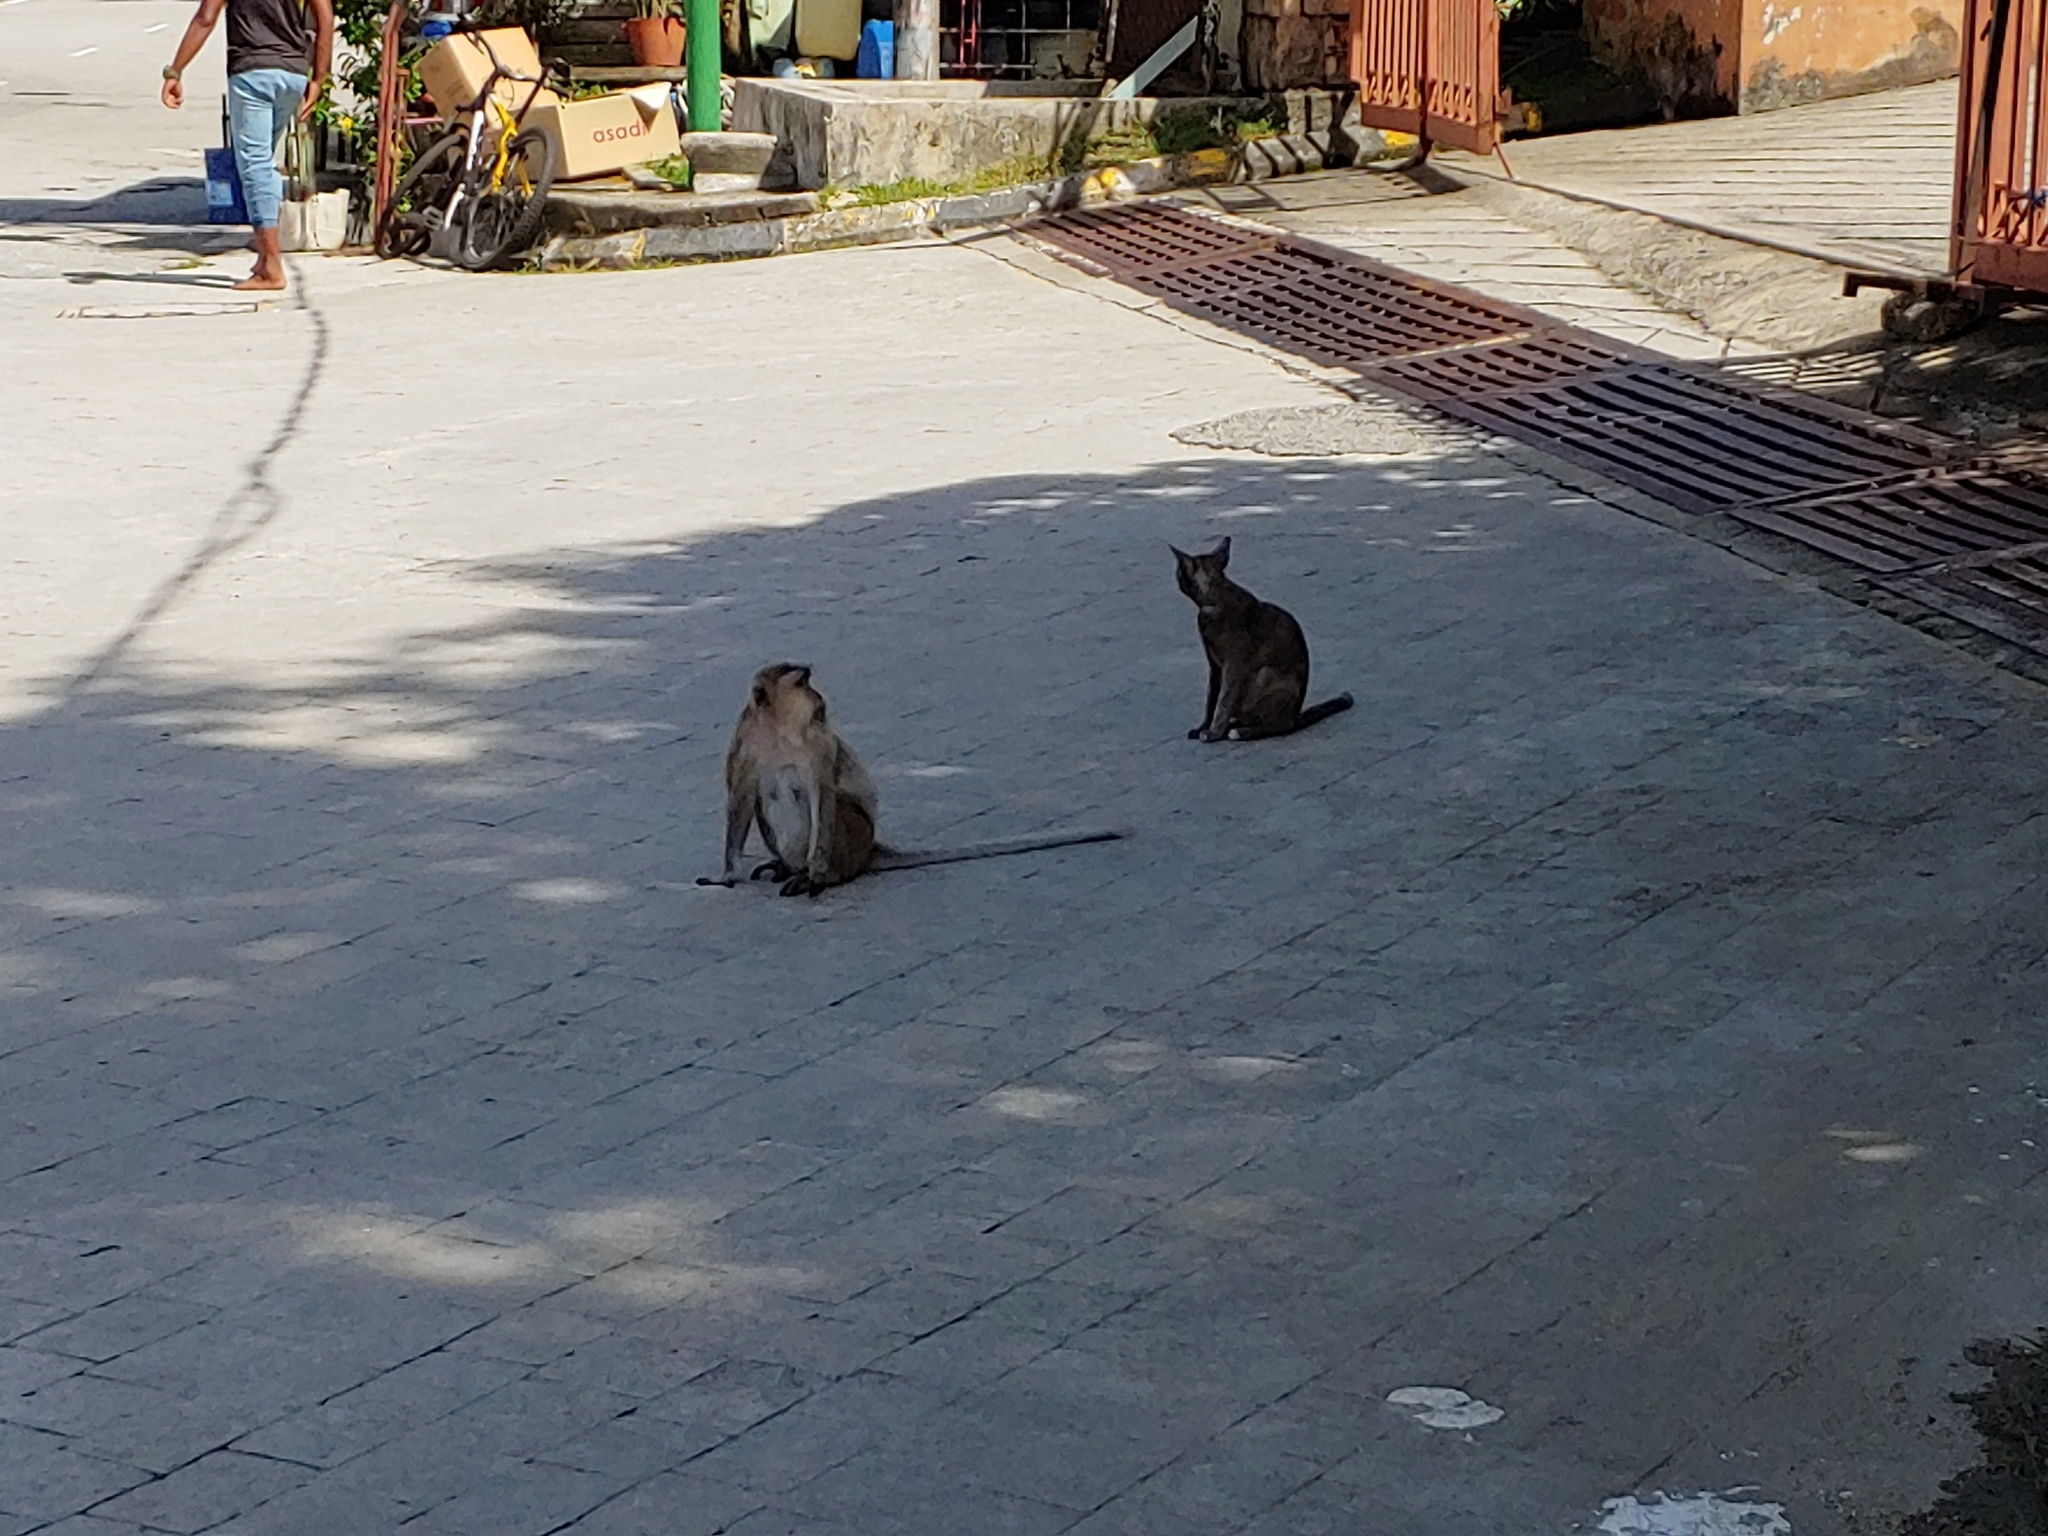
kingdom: Animalia
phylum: Chordata
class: Mammalia
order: Primates
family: Cercopithecidae
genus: Macaca
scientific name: Macaca fascicularis
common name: Crab-eating macaque
